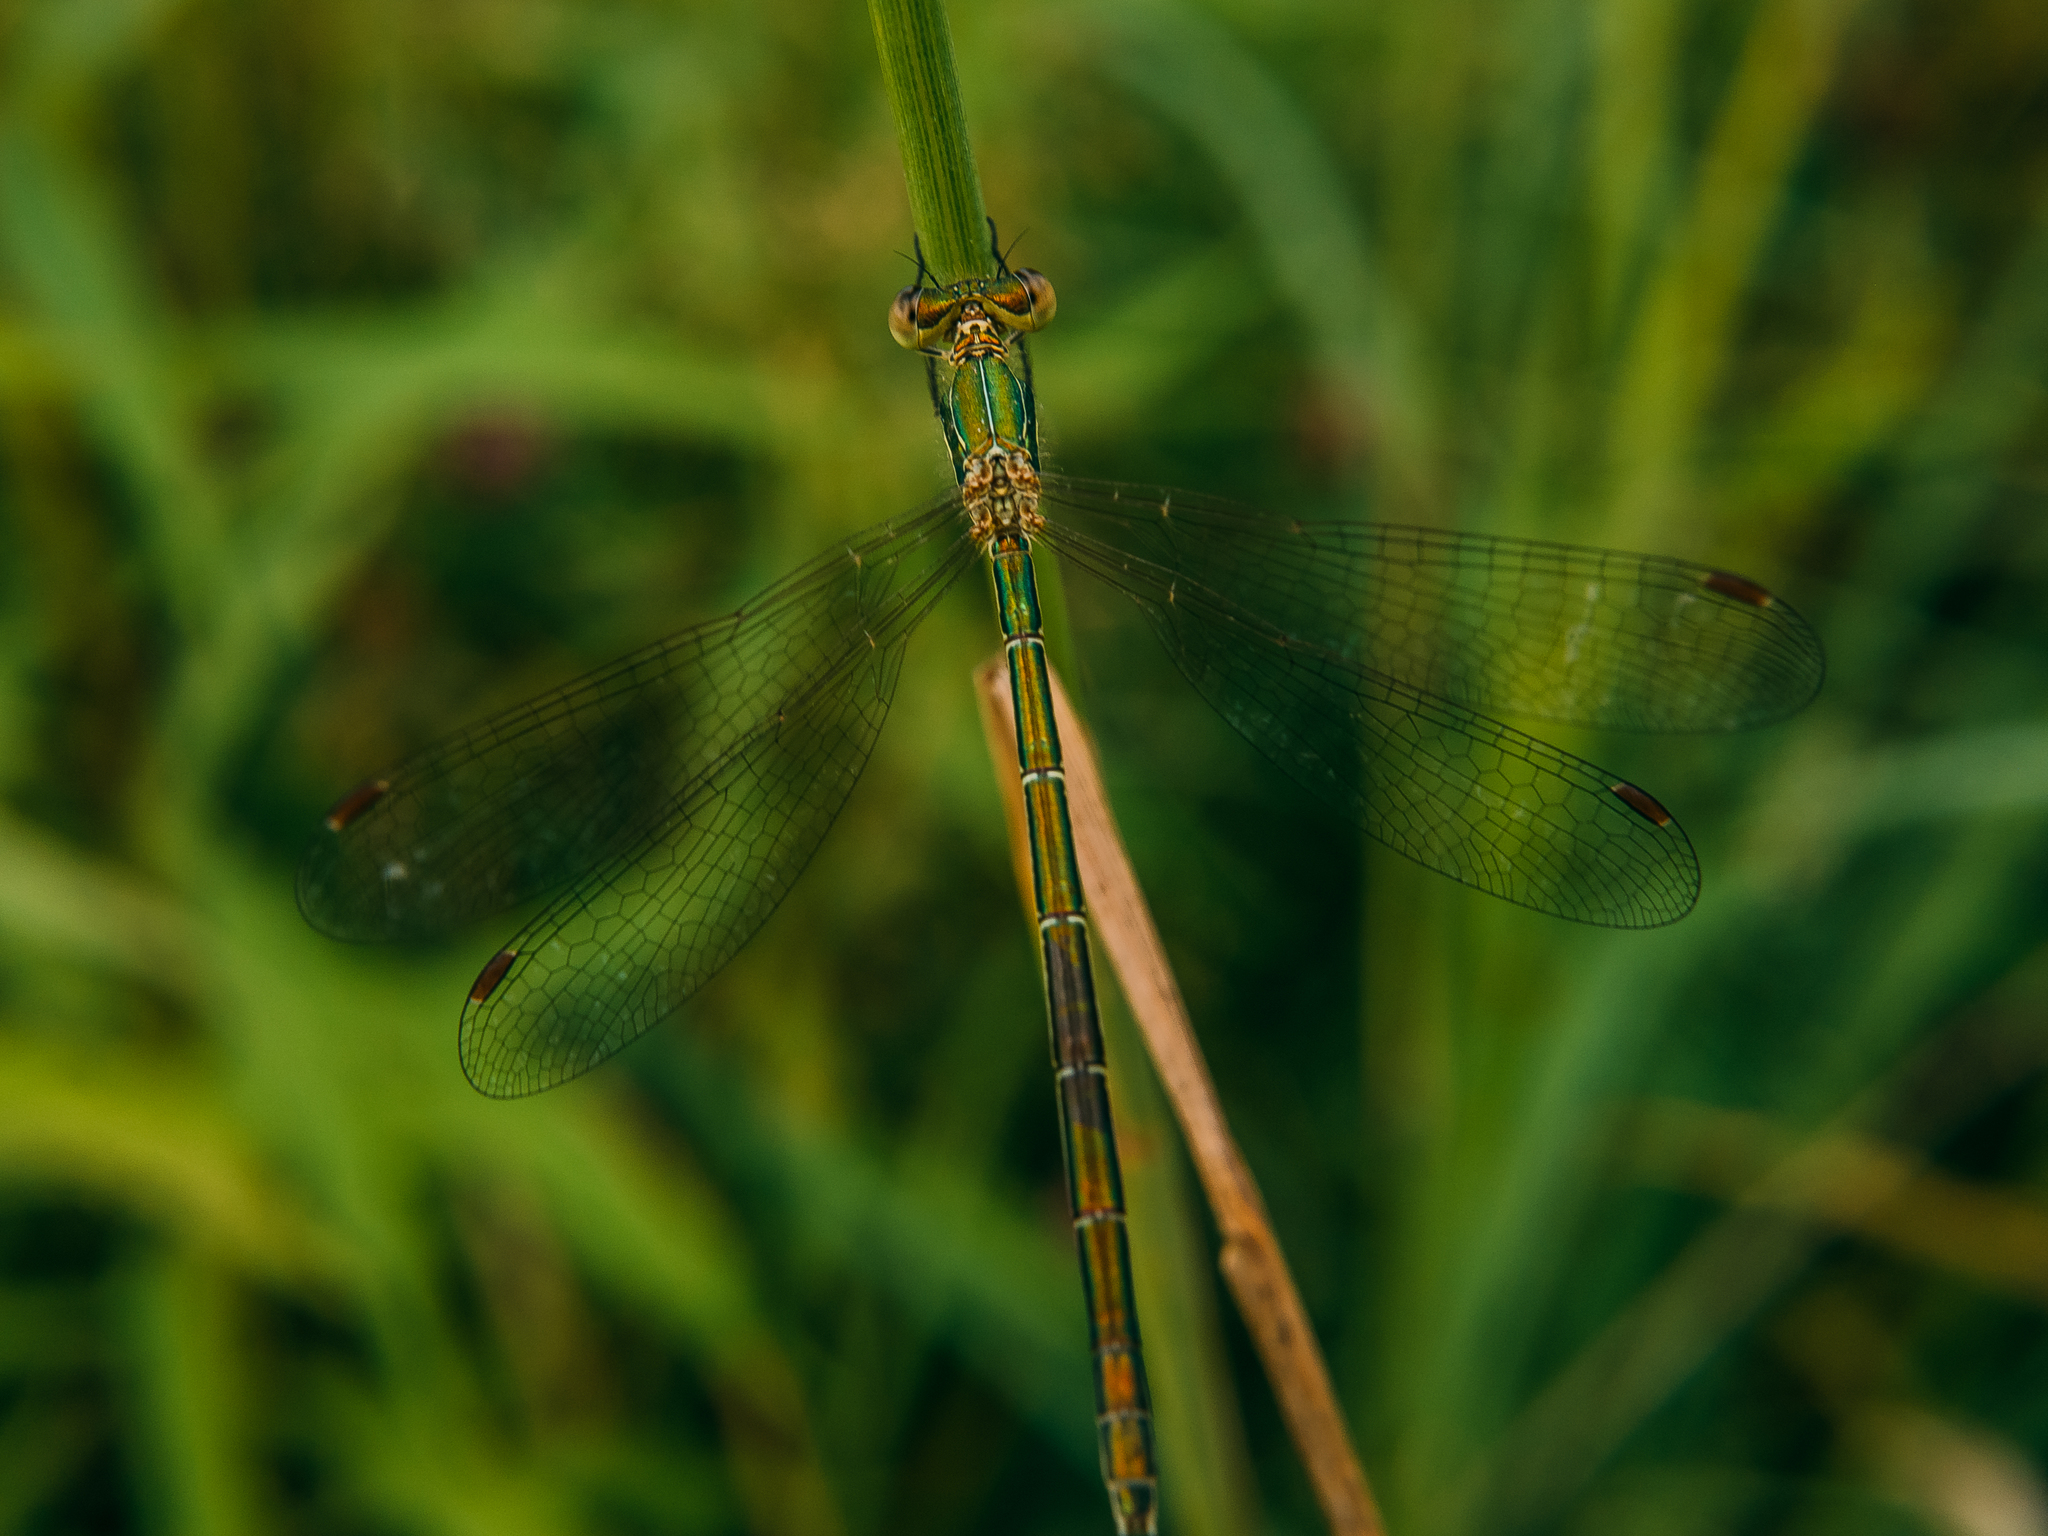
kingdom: Animalia
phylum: Arthropoda
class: Insecta
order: Odonata
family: Lestidae
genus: Lestes
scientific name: Lestes virens
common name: Small emerald spreadwing
